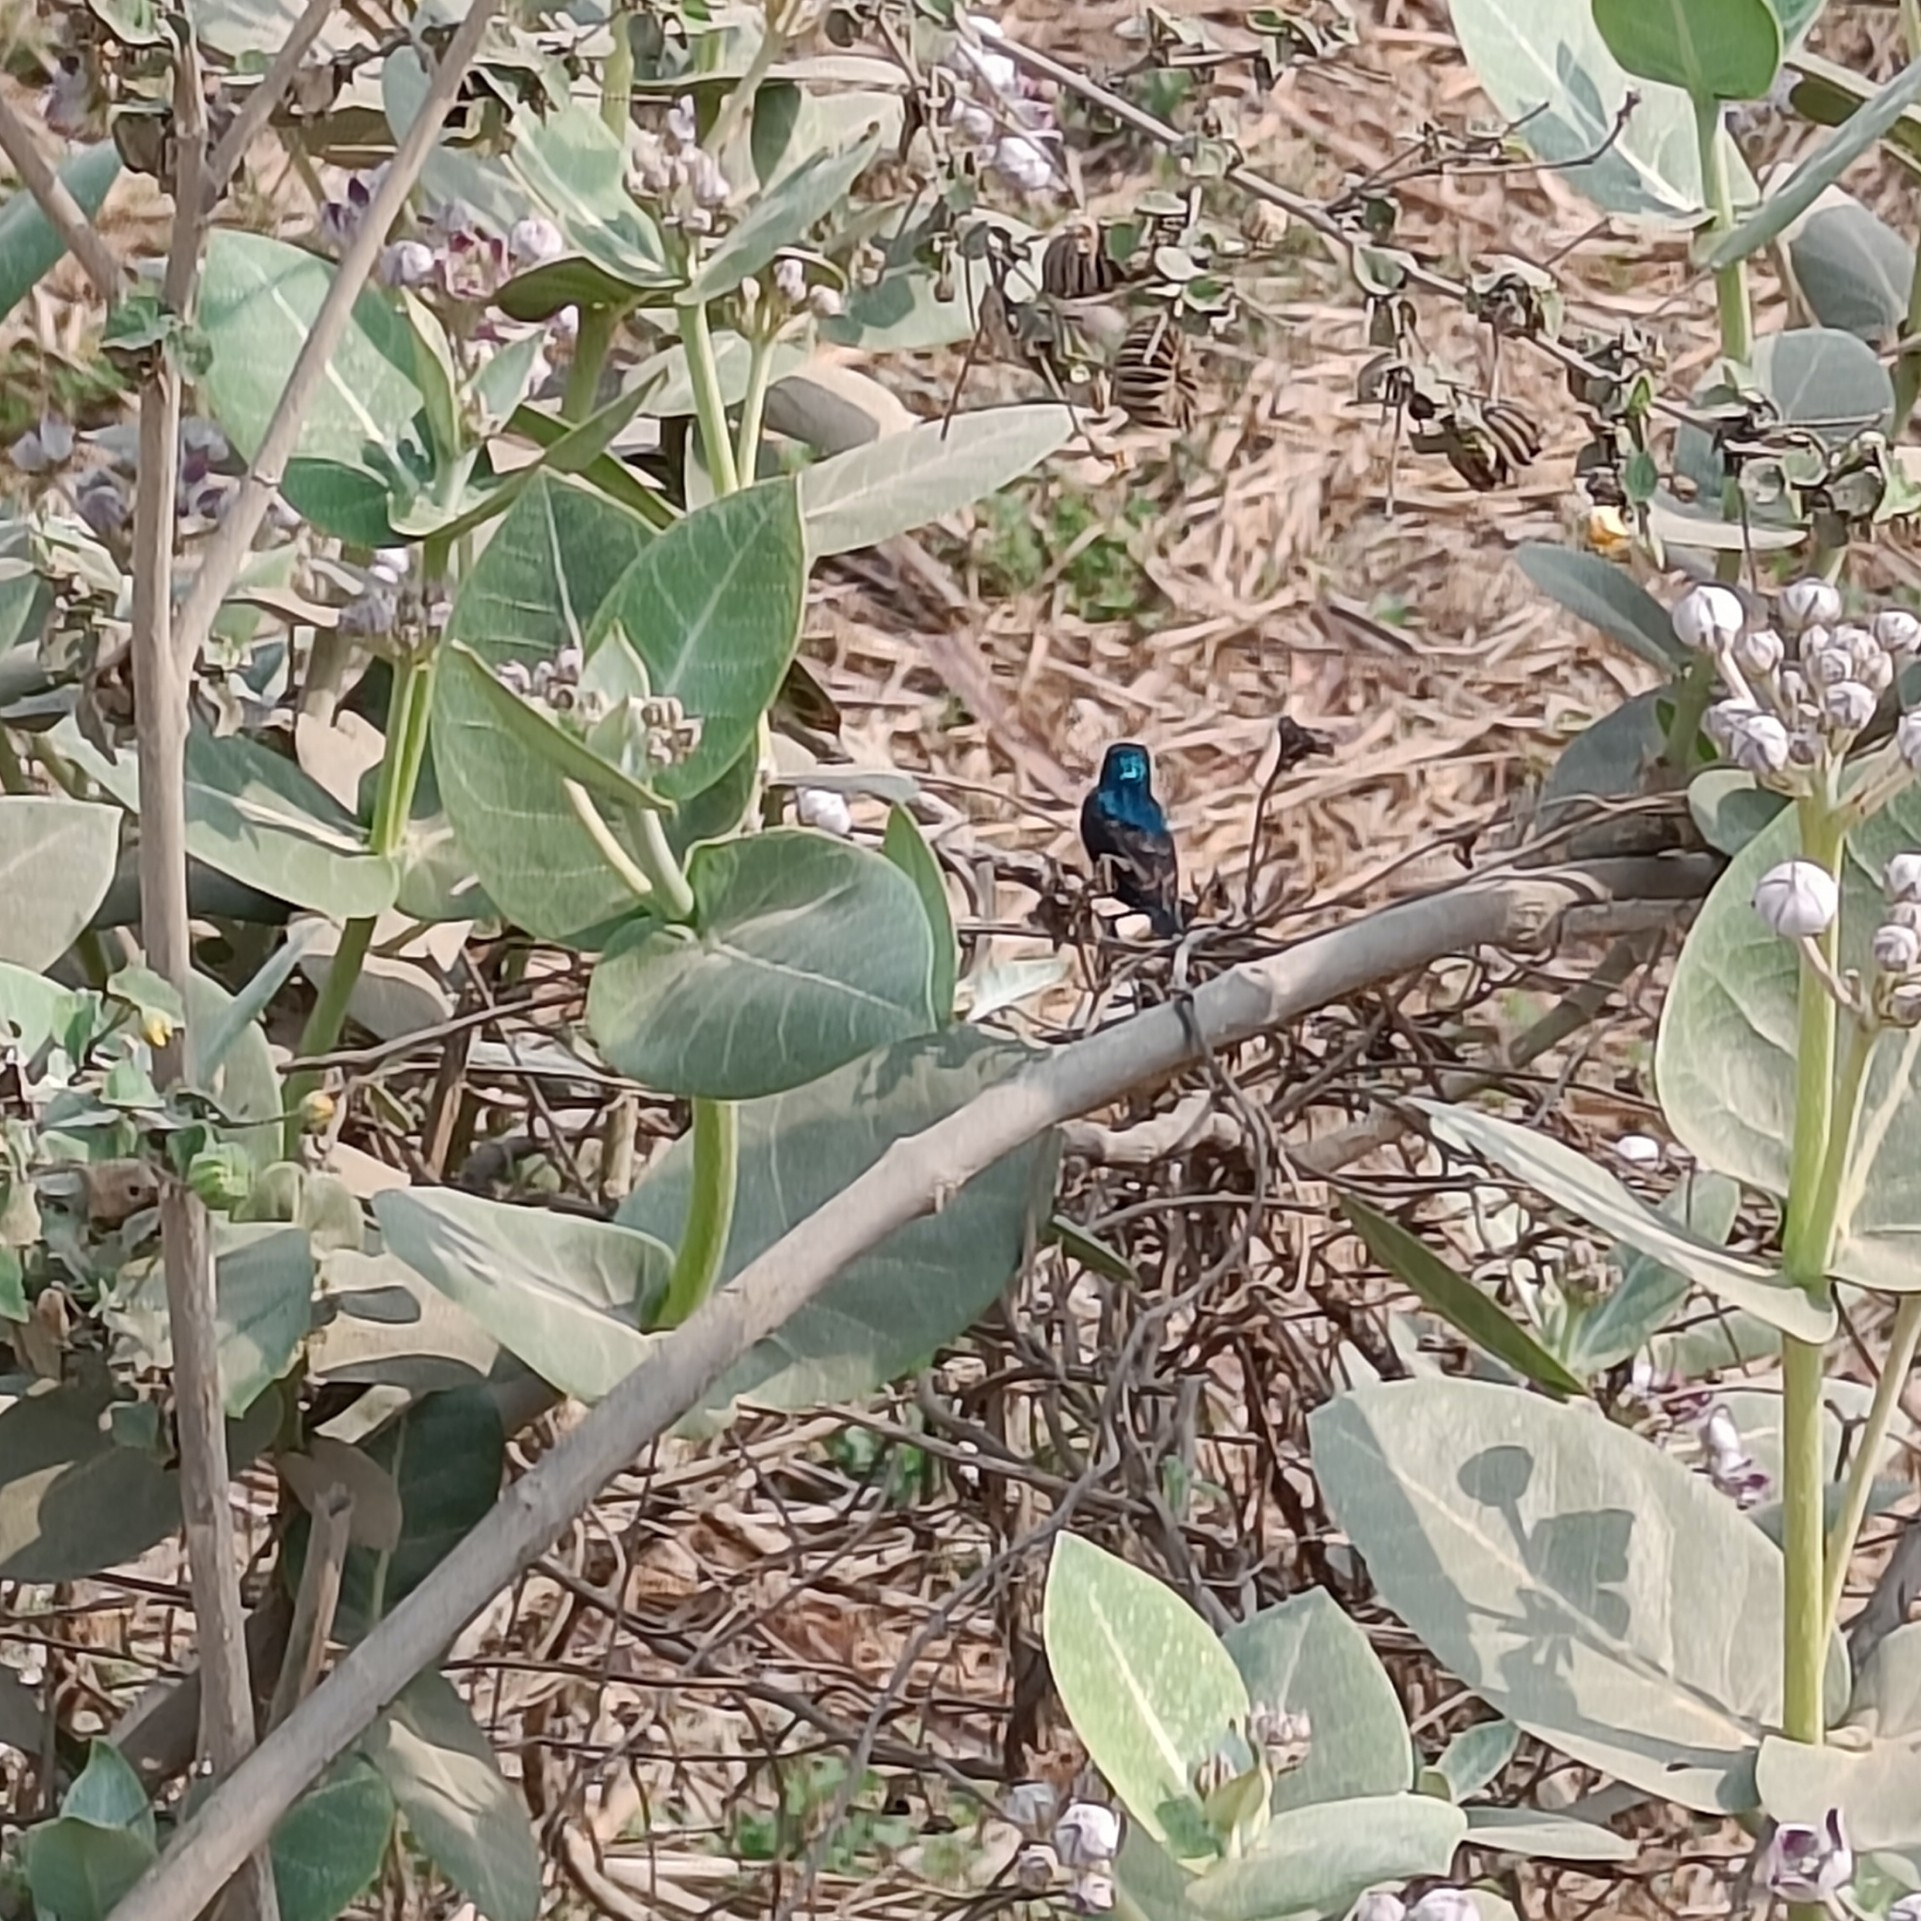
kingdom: Animalia
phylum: Chordata
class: Aves
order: Passeriformes
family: Nectariniidae
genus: Cinnyris
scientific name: Cinnyris asiaticus
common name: Purple sunbird
